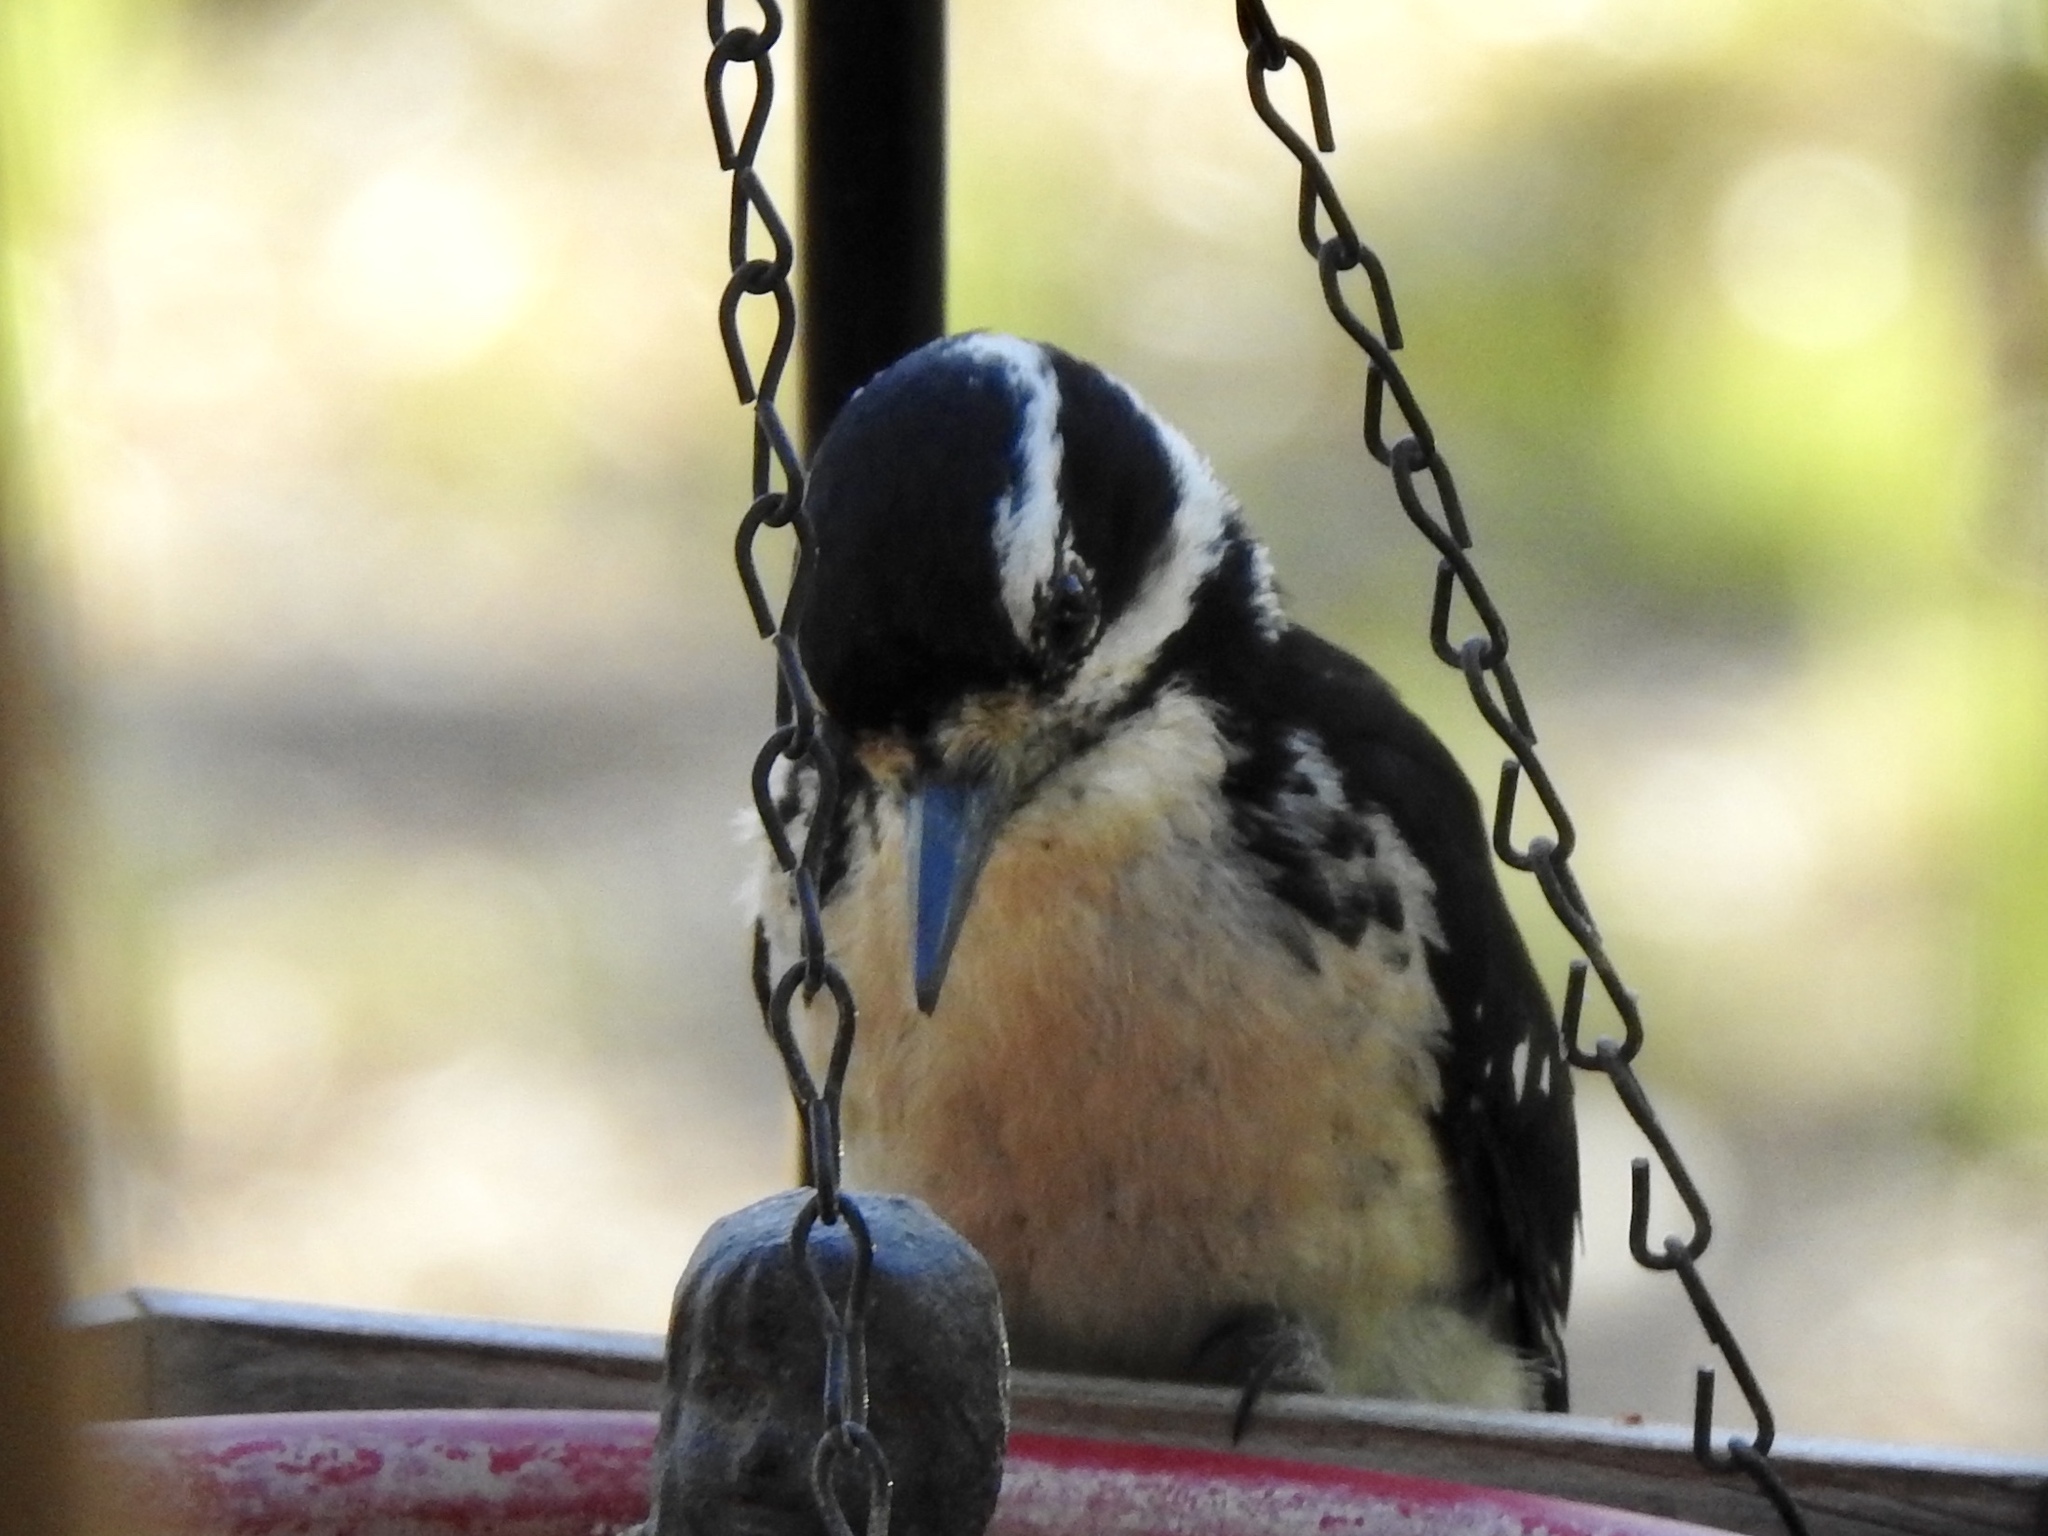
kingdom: Animalia
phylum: Chordata
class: Aves
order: Piciformes
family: Picidae
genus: Leuconotopicus
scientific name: Leuconotopicus villosus
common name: Hairy woodpecker
